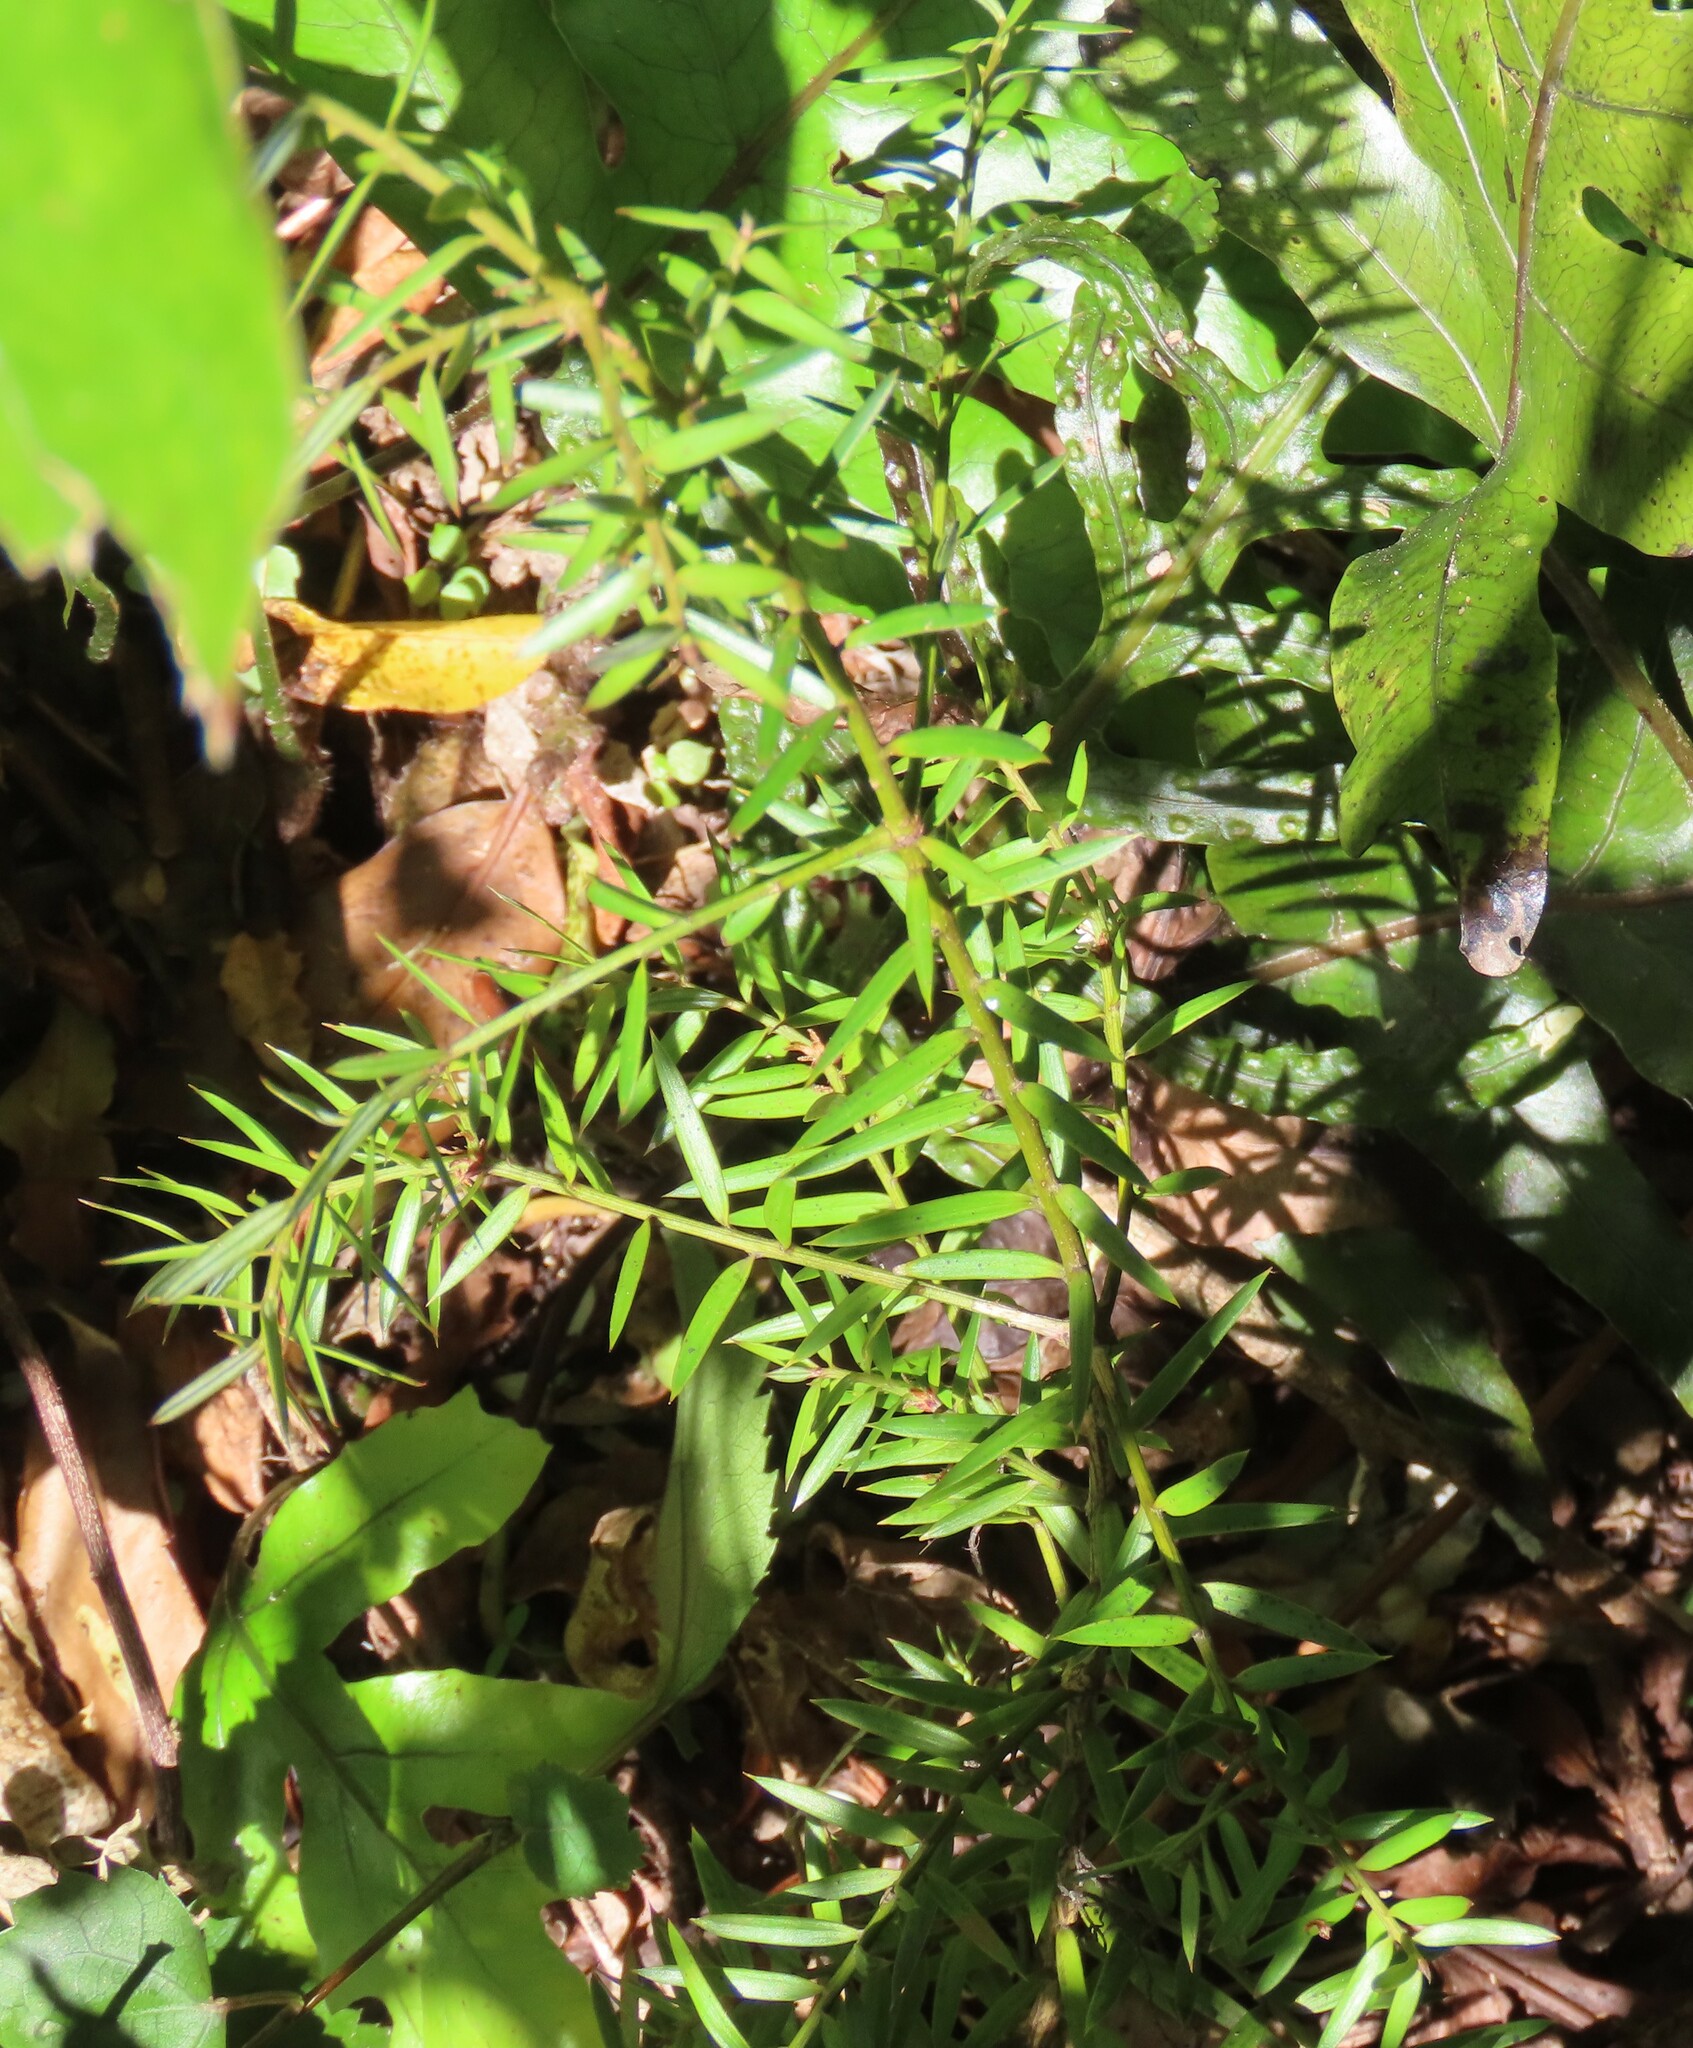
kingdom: Plantae
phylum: Tracheophyta
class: Pinopsida
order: Pinales
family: Podocarpaceae
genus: Podocarpus
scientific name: Podocarpus totara
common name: Totara
